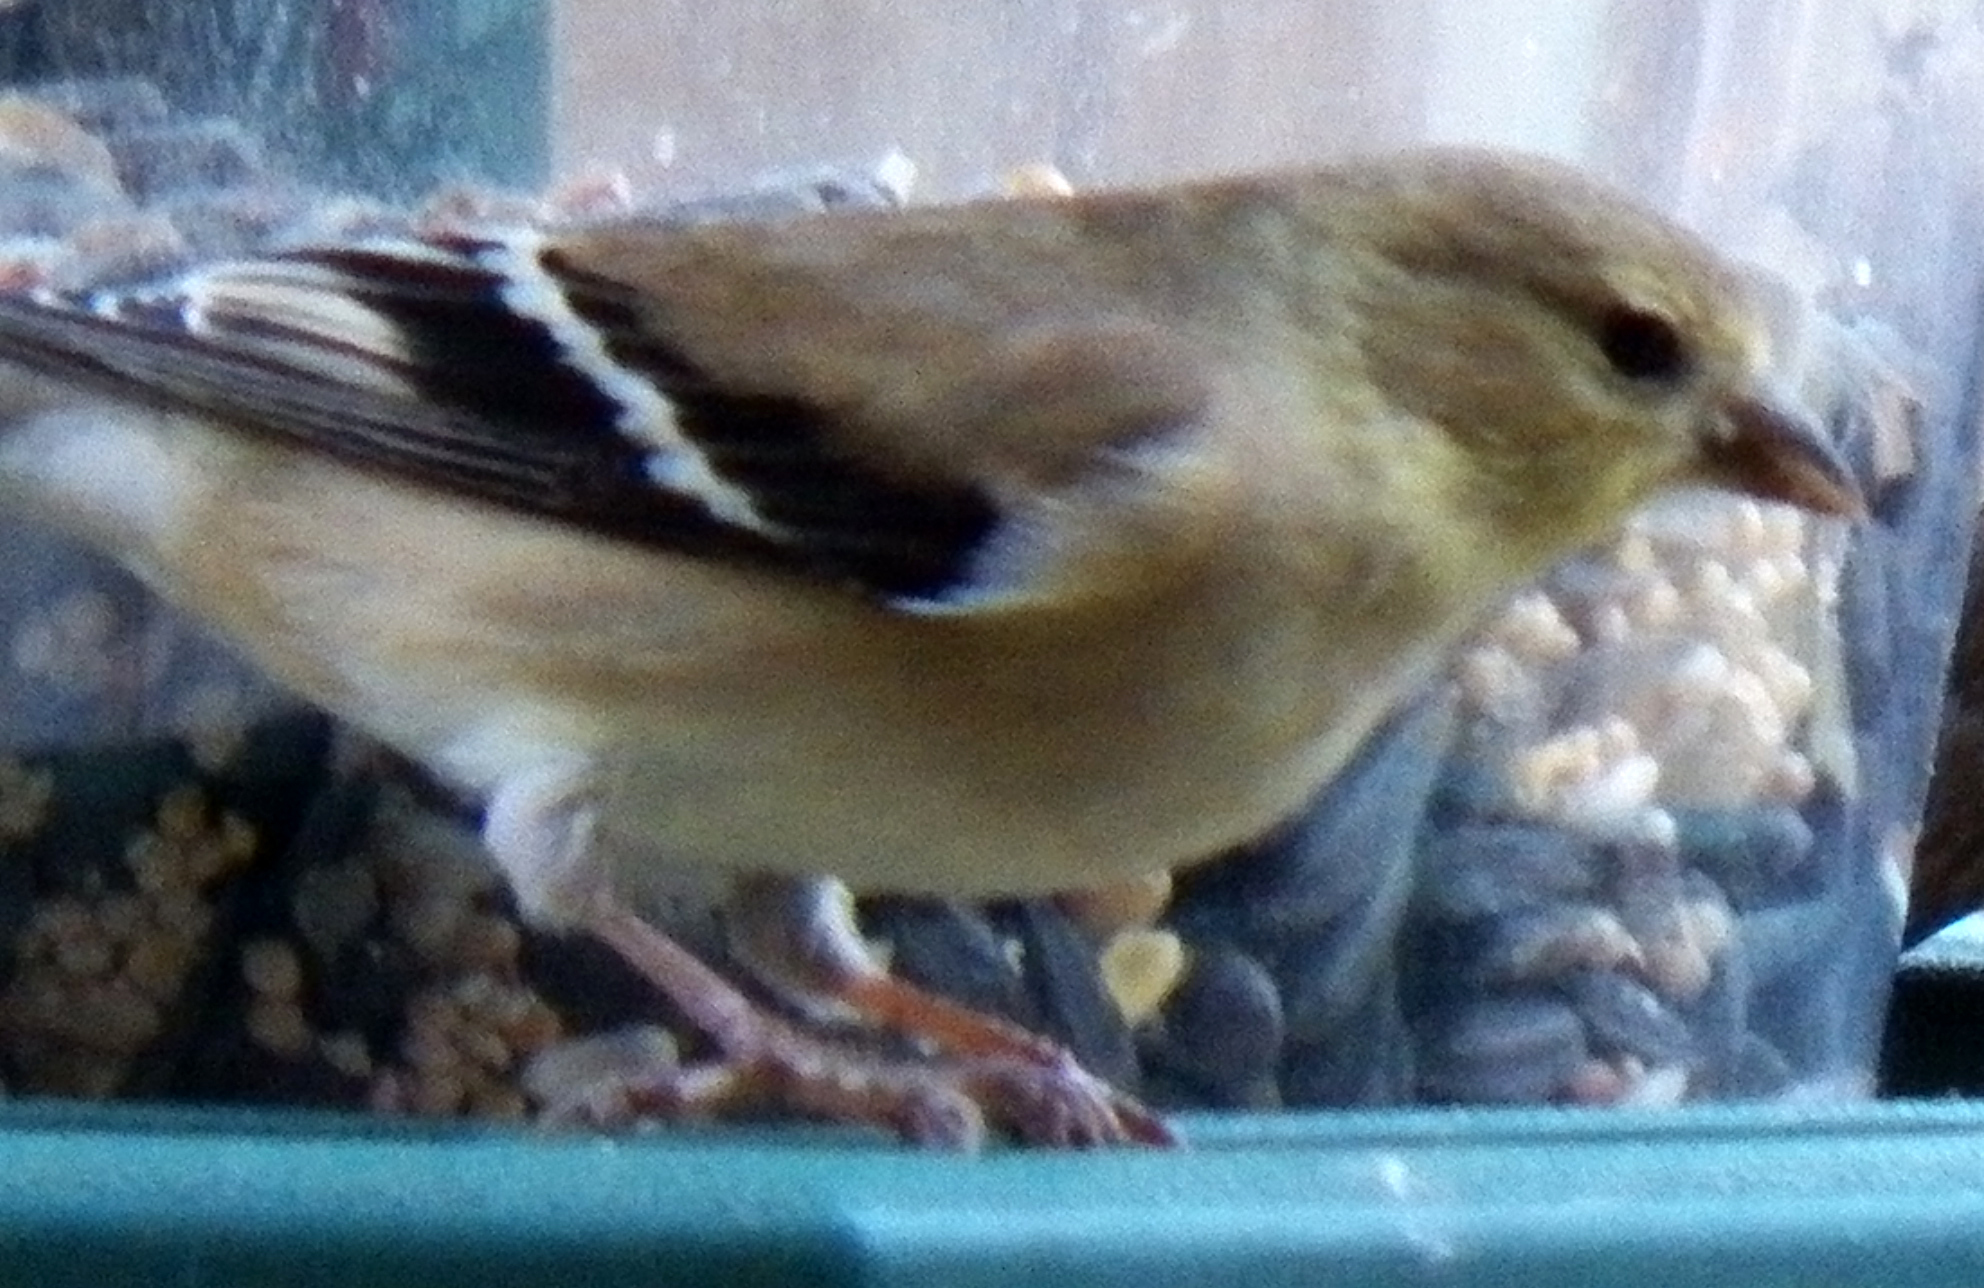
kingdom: Animalia
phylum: Chordata
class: Aves
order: Passeriformes
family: Fringillidae
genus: Spinus
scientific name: Spinus tristis
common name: American goldfinch
